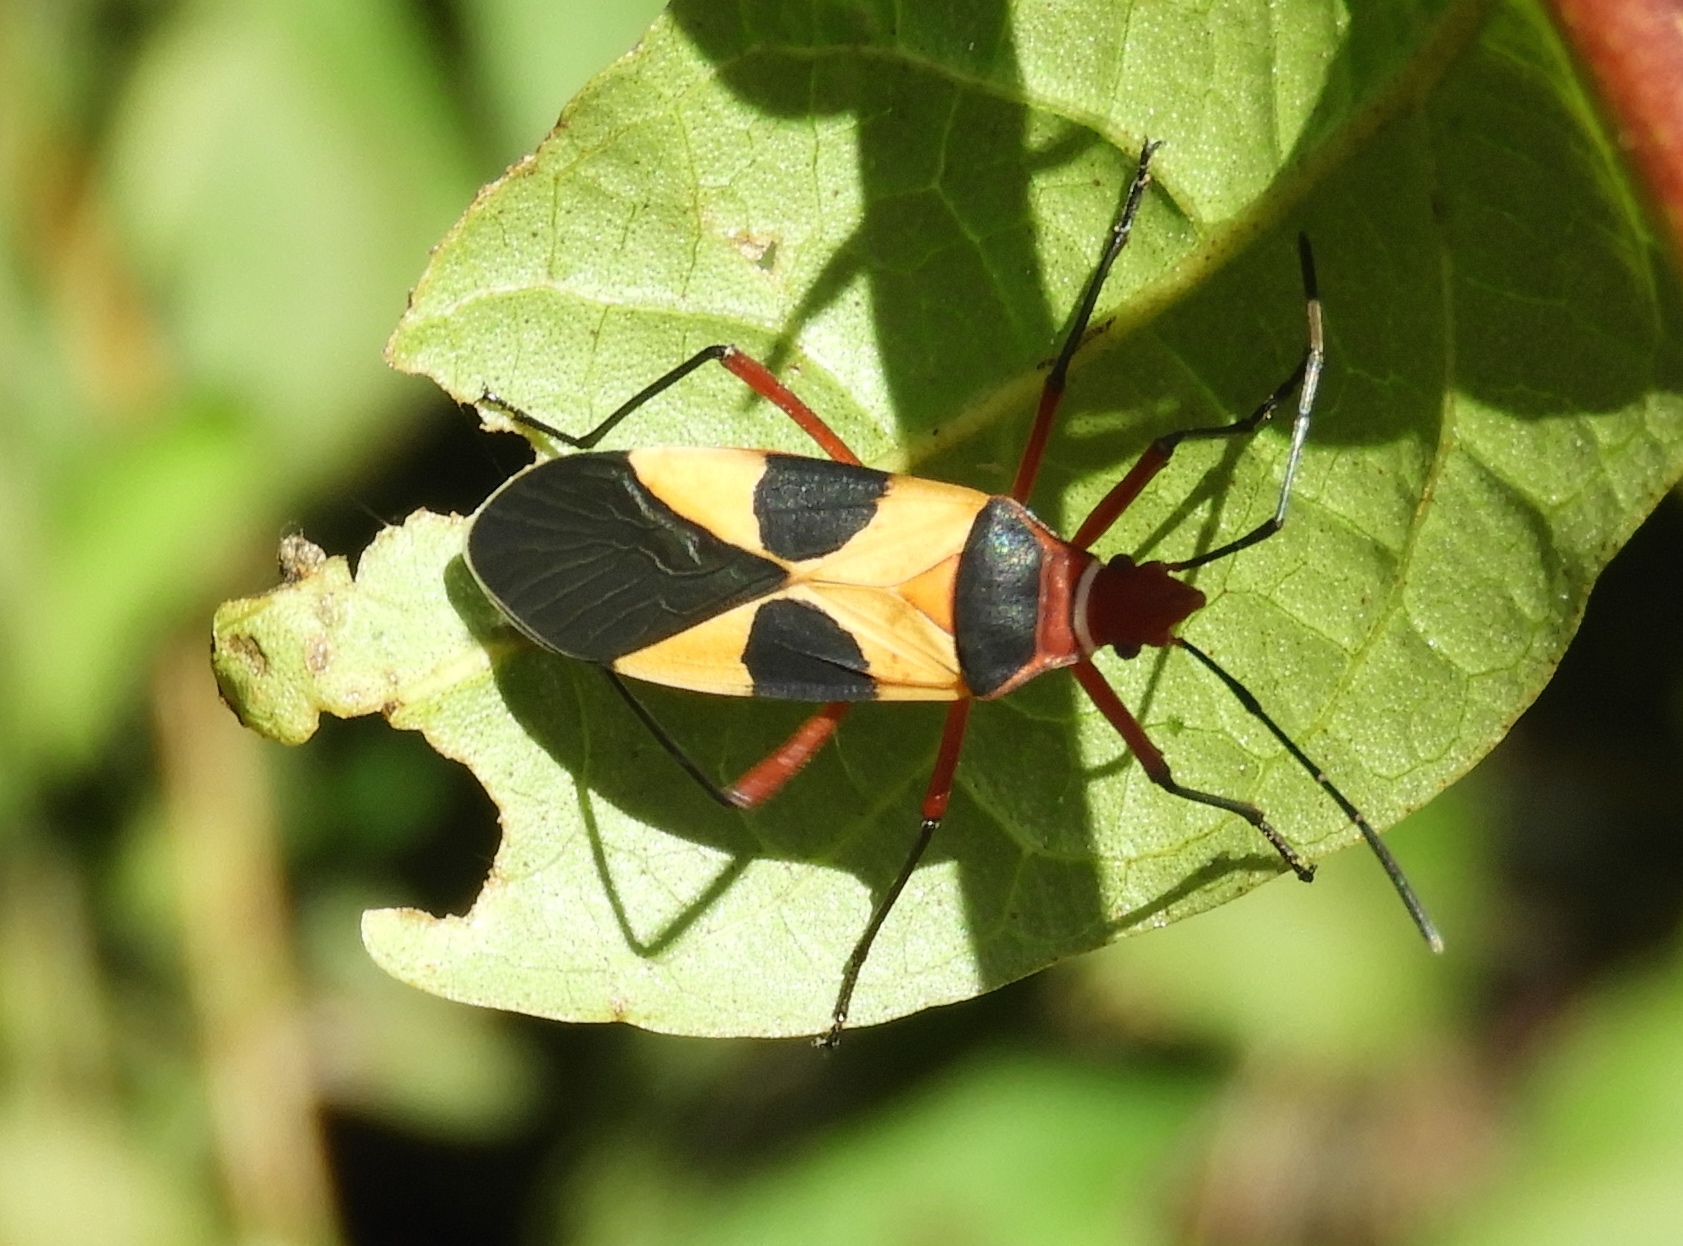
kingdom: Animalia
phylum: Arthropoda
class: Insecta
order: Hemiptera
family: Pyrrhocoridae
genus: Dysdercus
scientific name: Dysdercus
